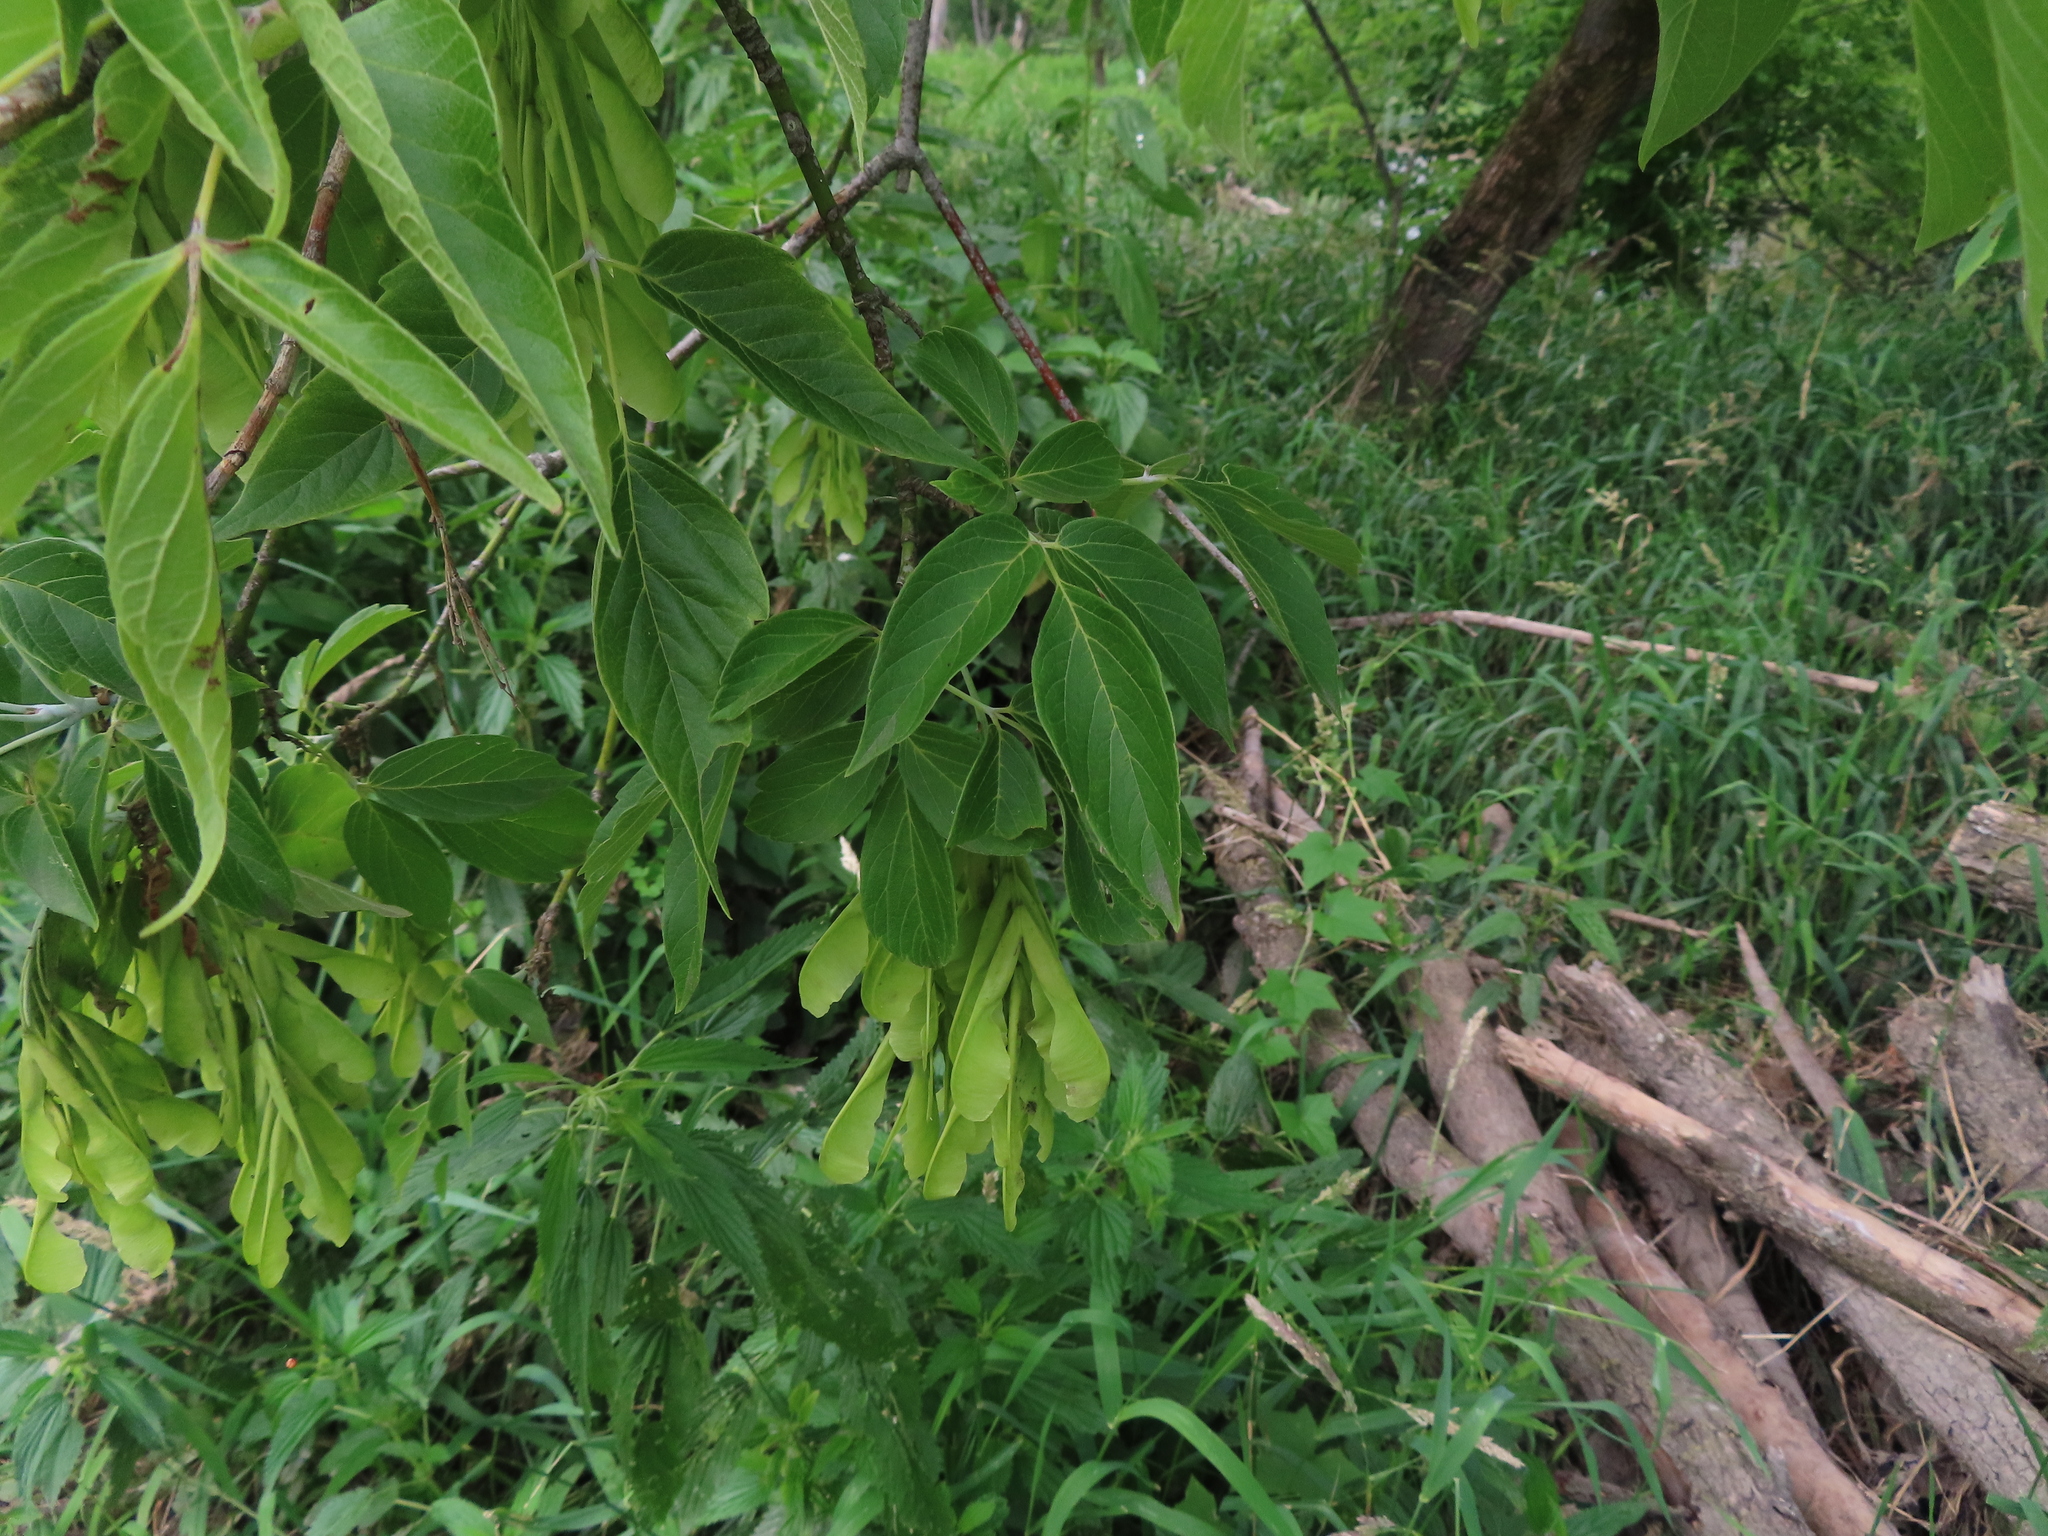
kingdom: Plantae
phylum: Tracheophyta
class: Magnoliopsida
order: Sapindales
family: Sapindaceae
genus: Acer
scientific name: Acer negundo
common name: Ashleaf maple
